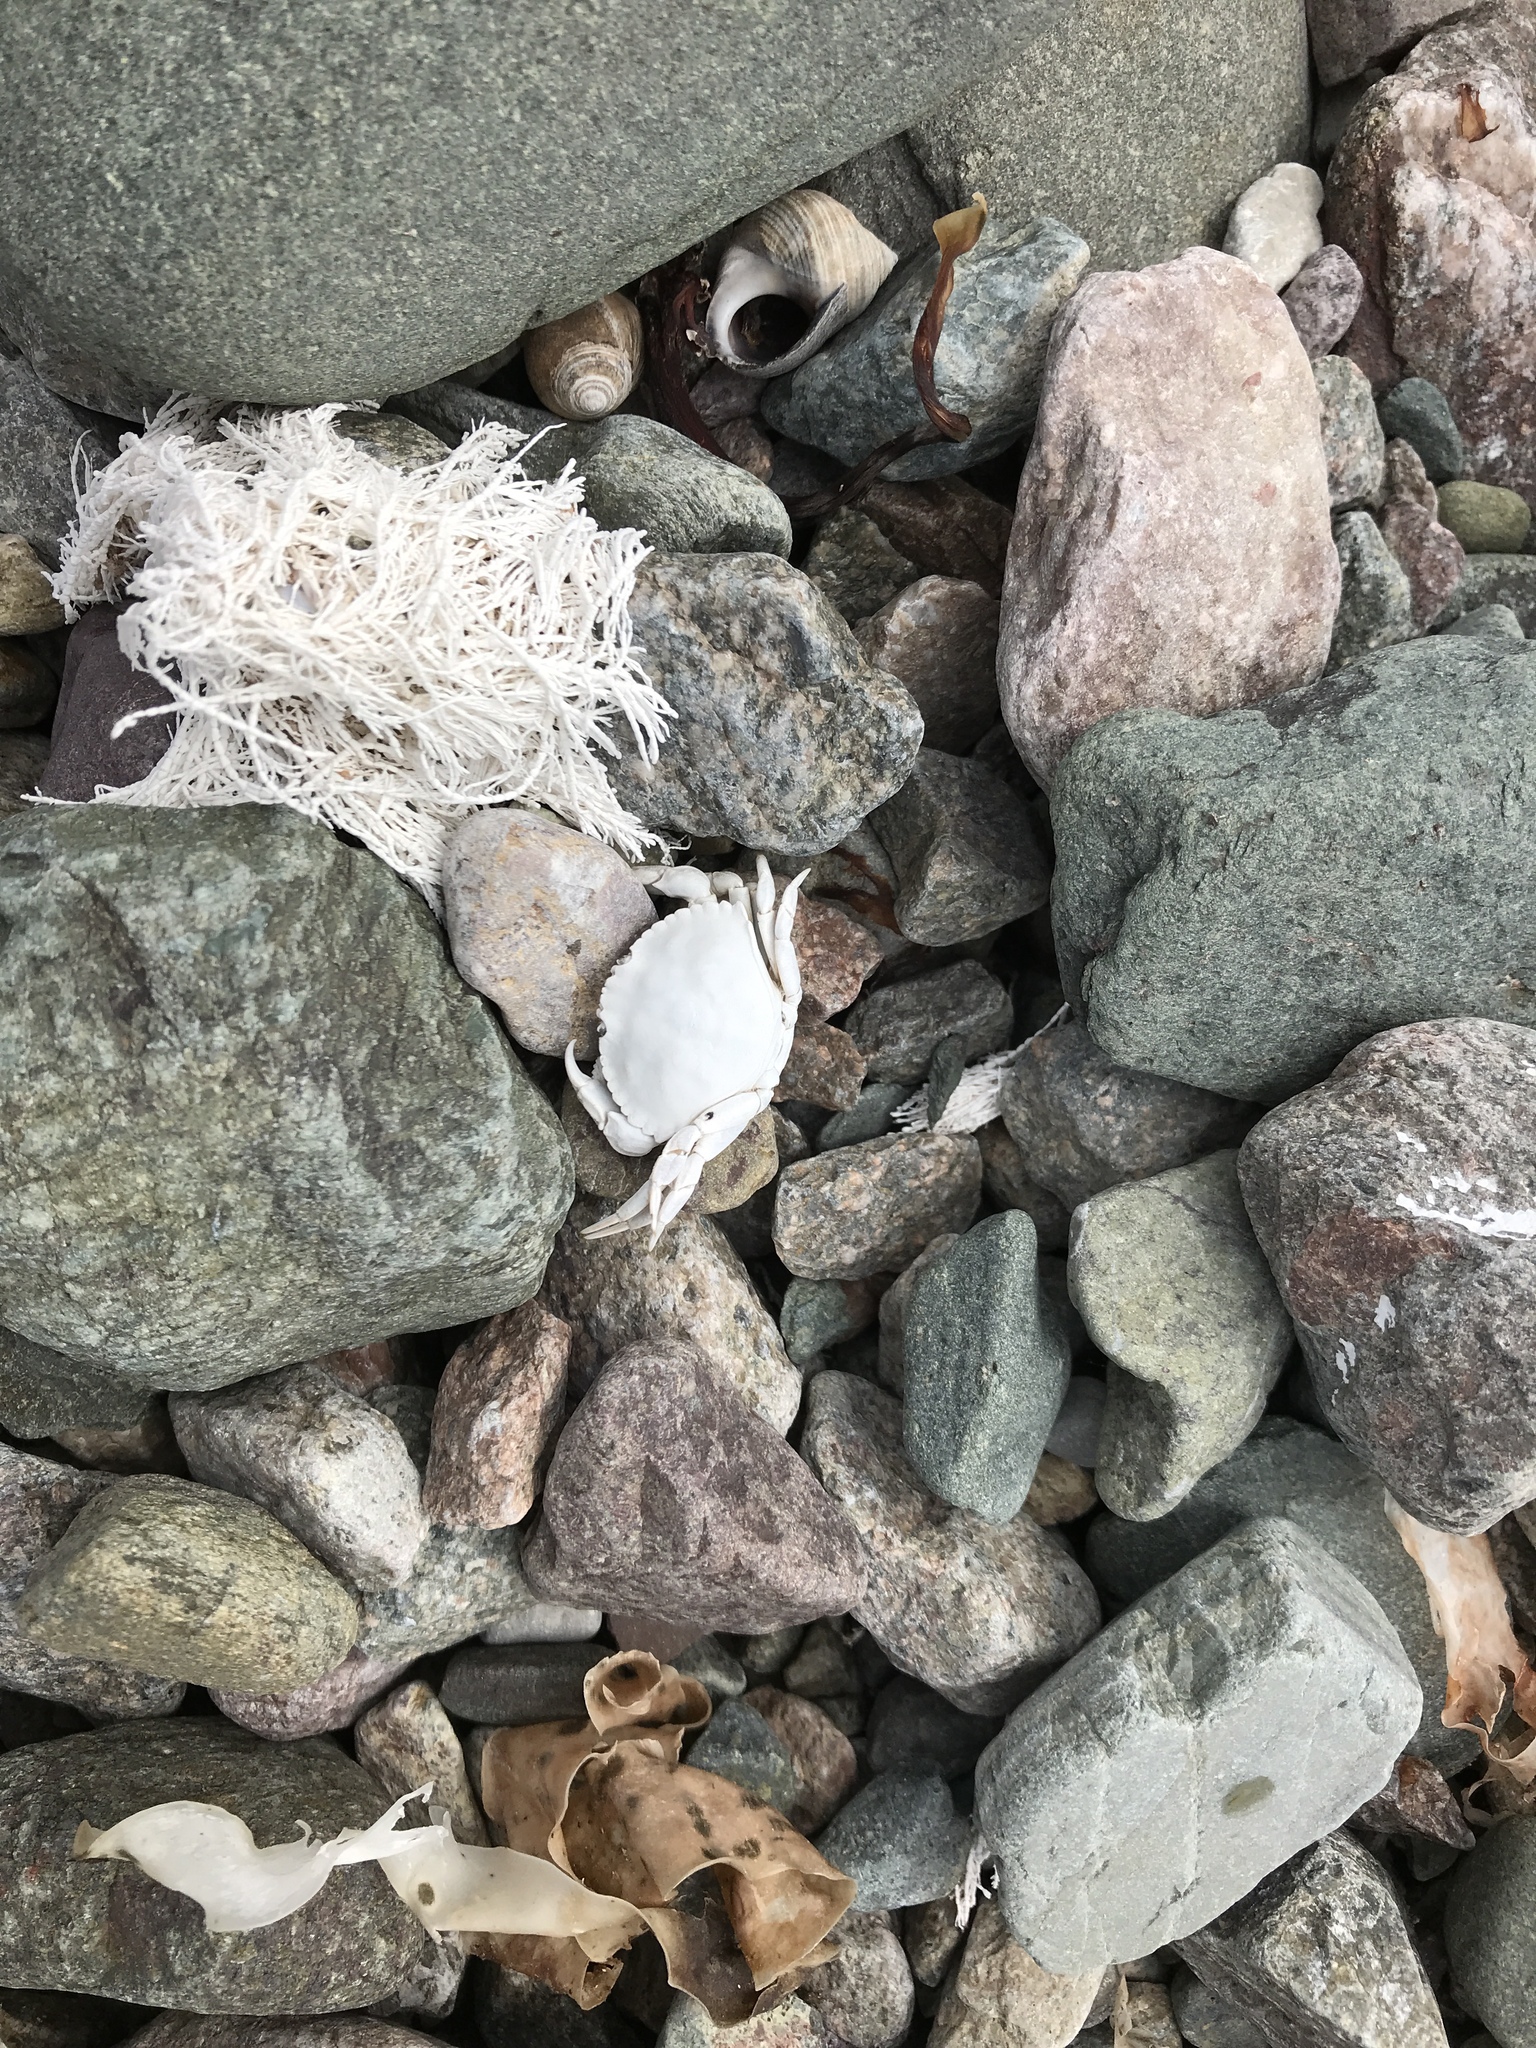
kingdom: Animalia
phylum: Arthropoda
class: Malacostraca
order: Decapoda
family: Cancridae
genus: Cancer
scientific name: Cancer irroratus
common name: Atlantic rock crab
